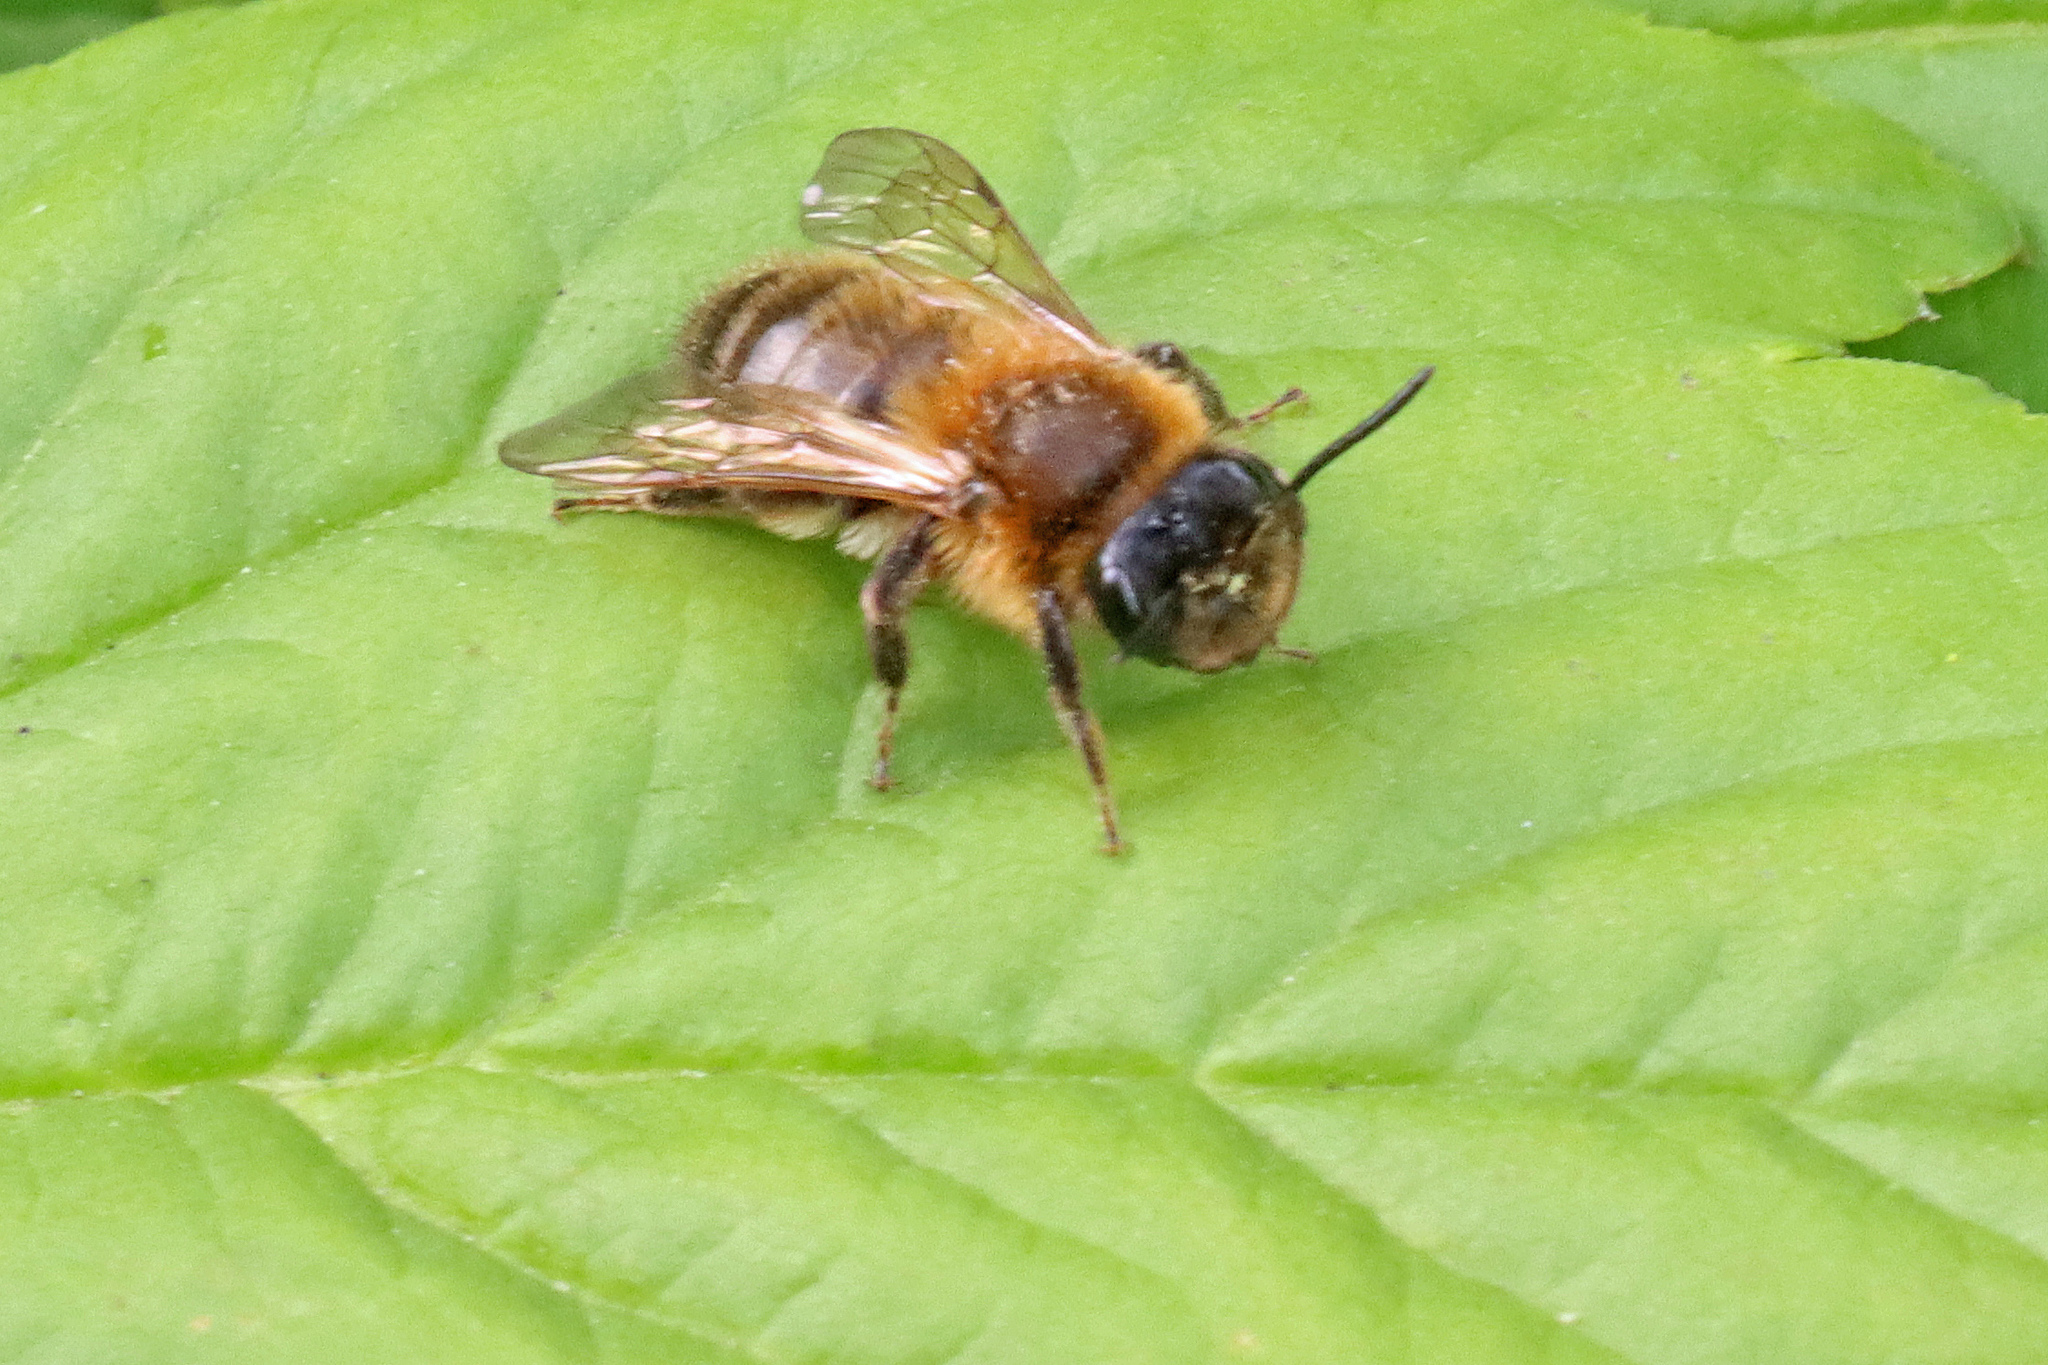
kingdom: Animalia
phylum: Arthropoda
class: Insecta
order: Hymenoptera
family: Andrenidae
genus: Andrena
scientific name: Andrena carantonica
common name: Chocolate mining bee
